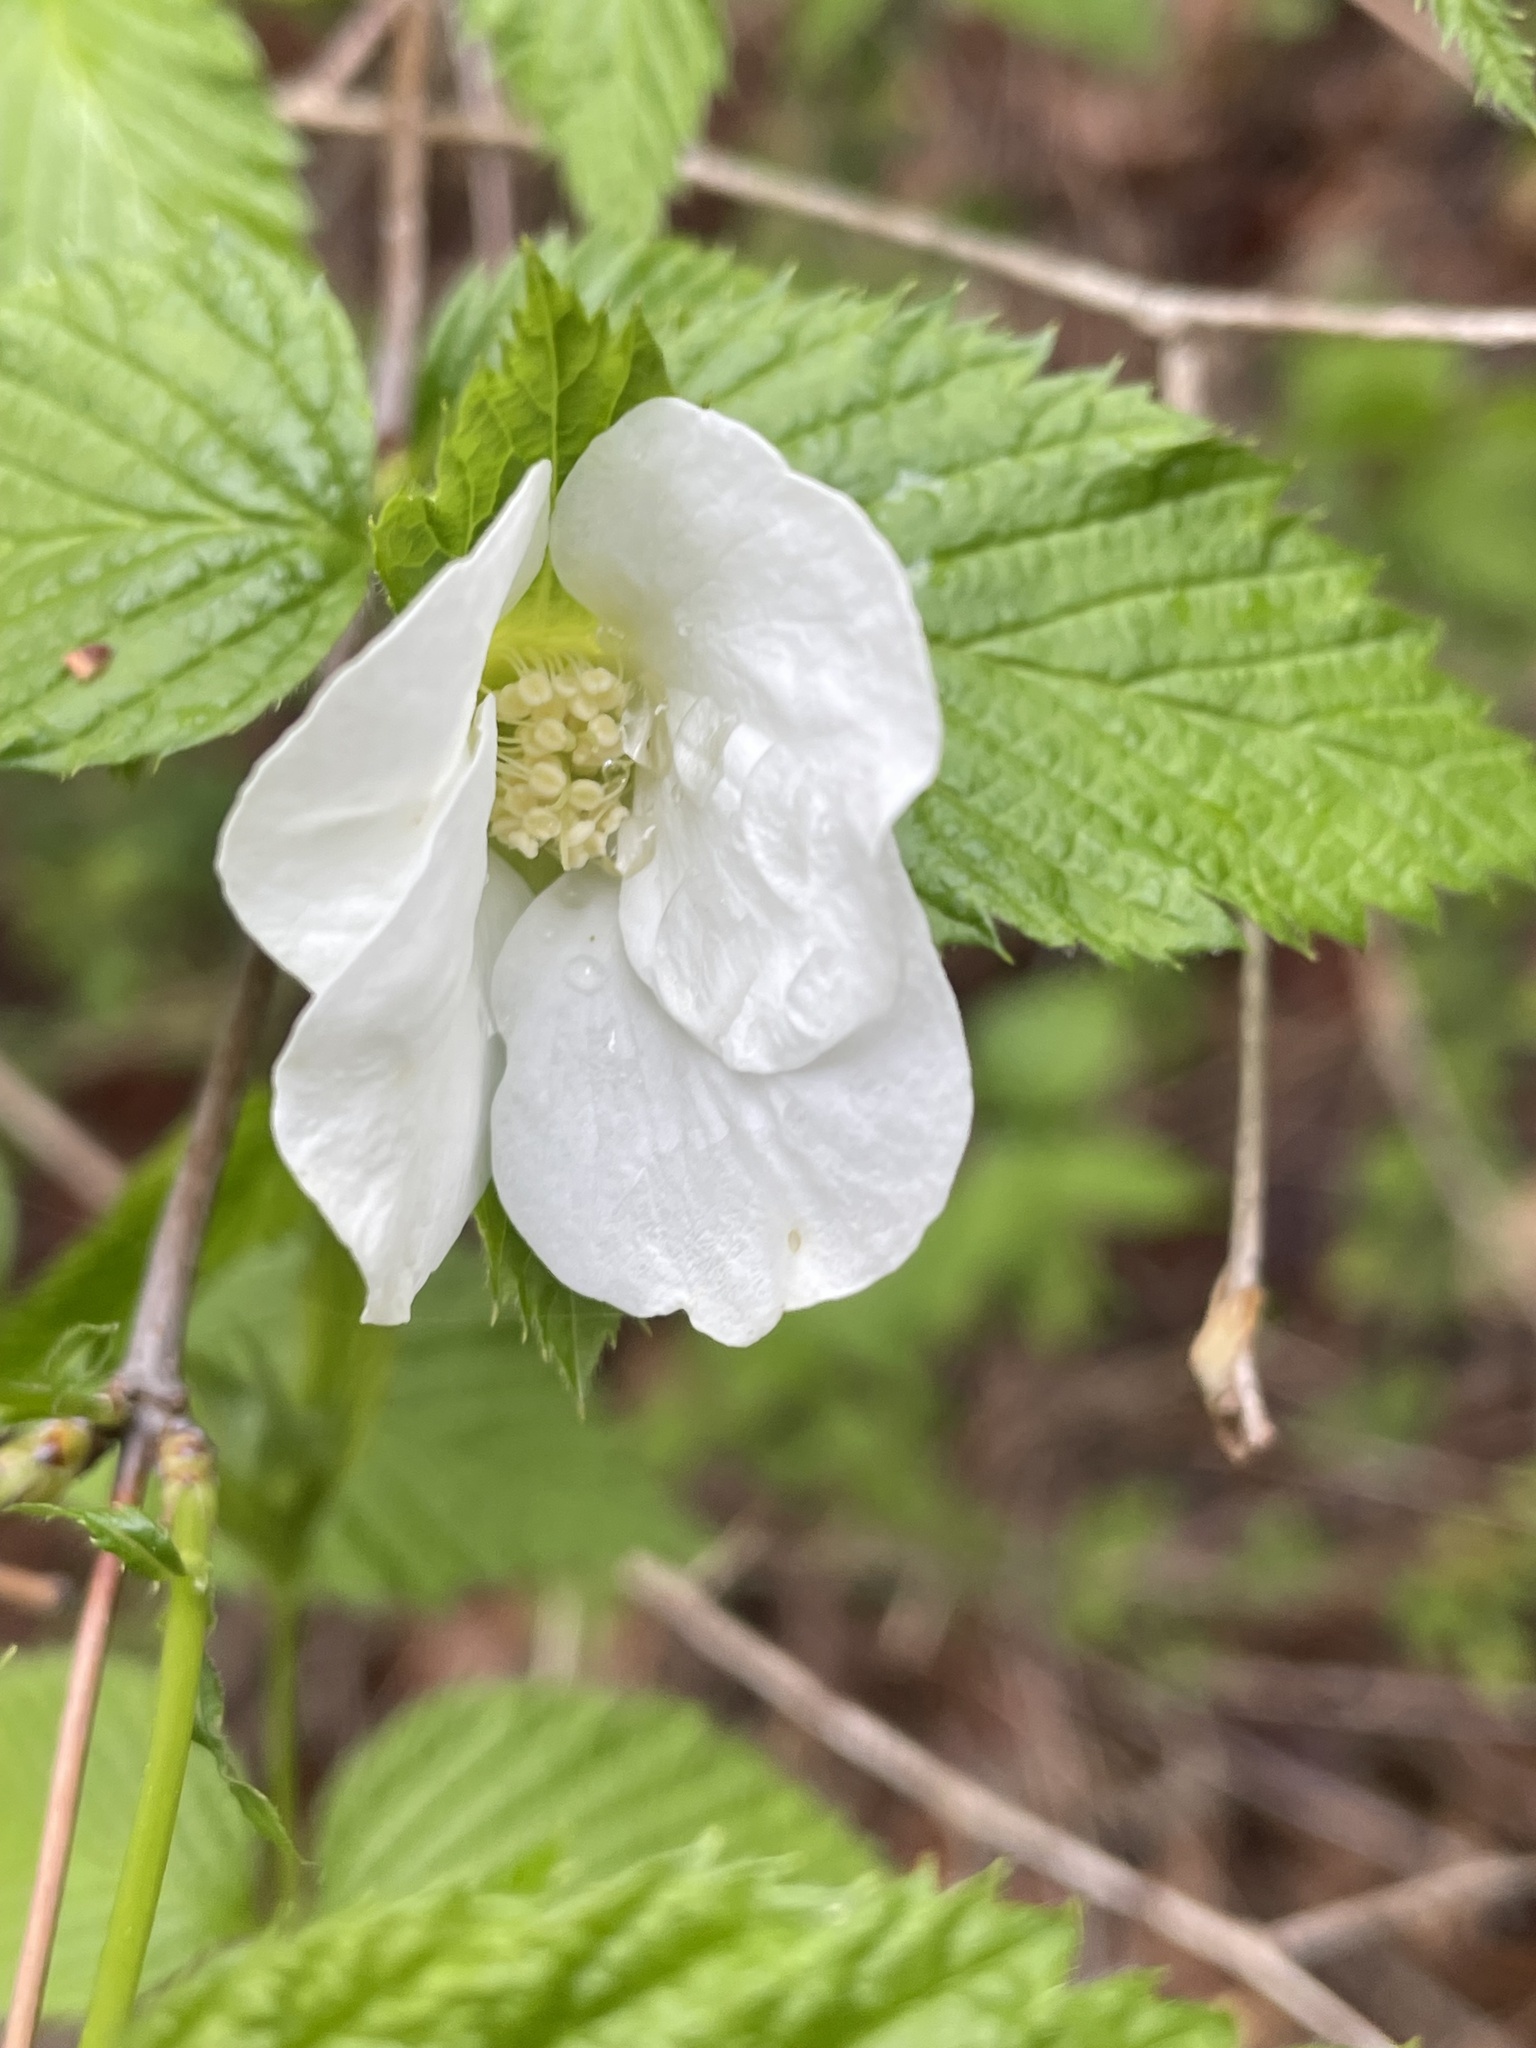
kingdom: Plantae
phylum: Tracheophyta
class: Magnoliopsida
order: Rosales
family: Rosaceae
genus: Rhodotypos
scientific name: Rhodotypos scandens
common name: Jetbead
